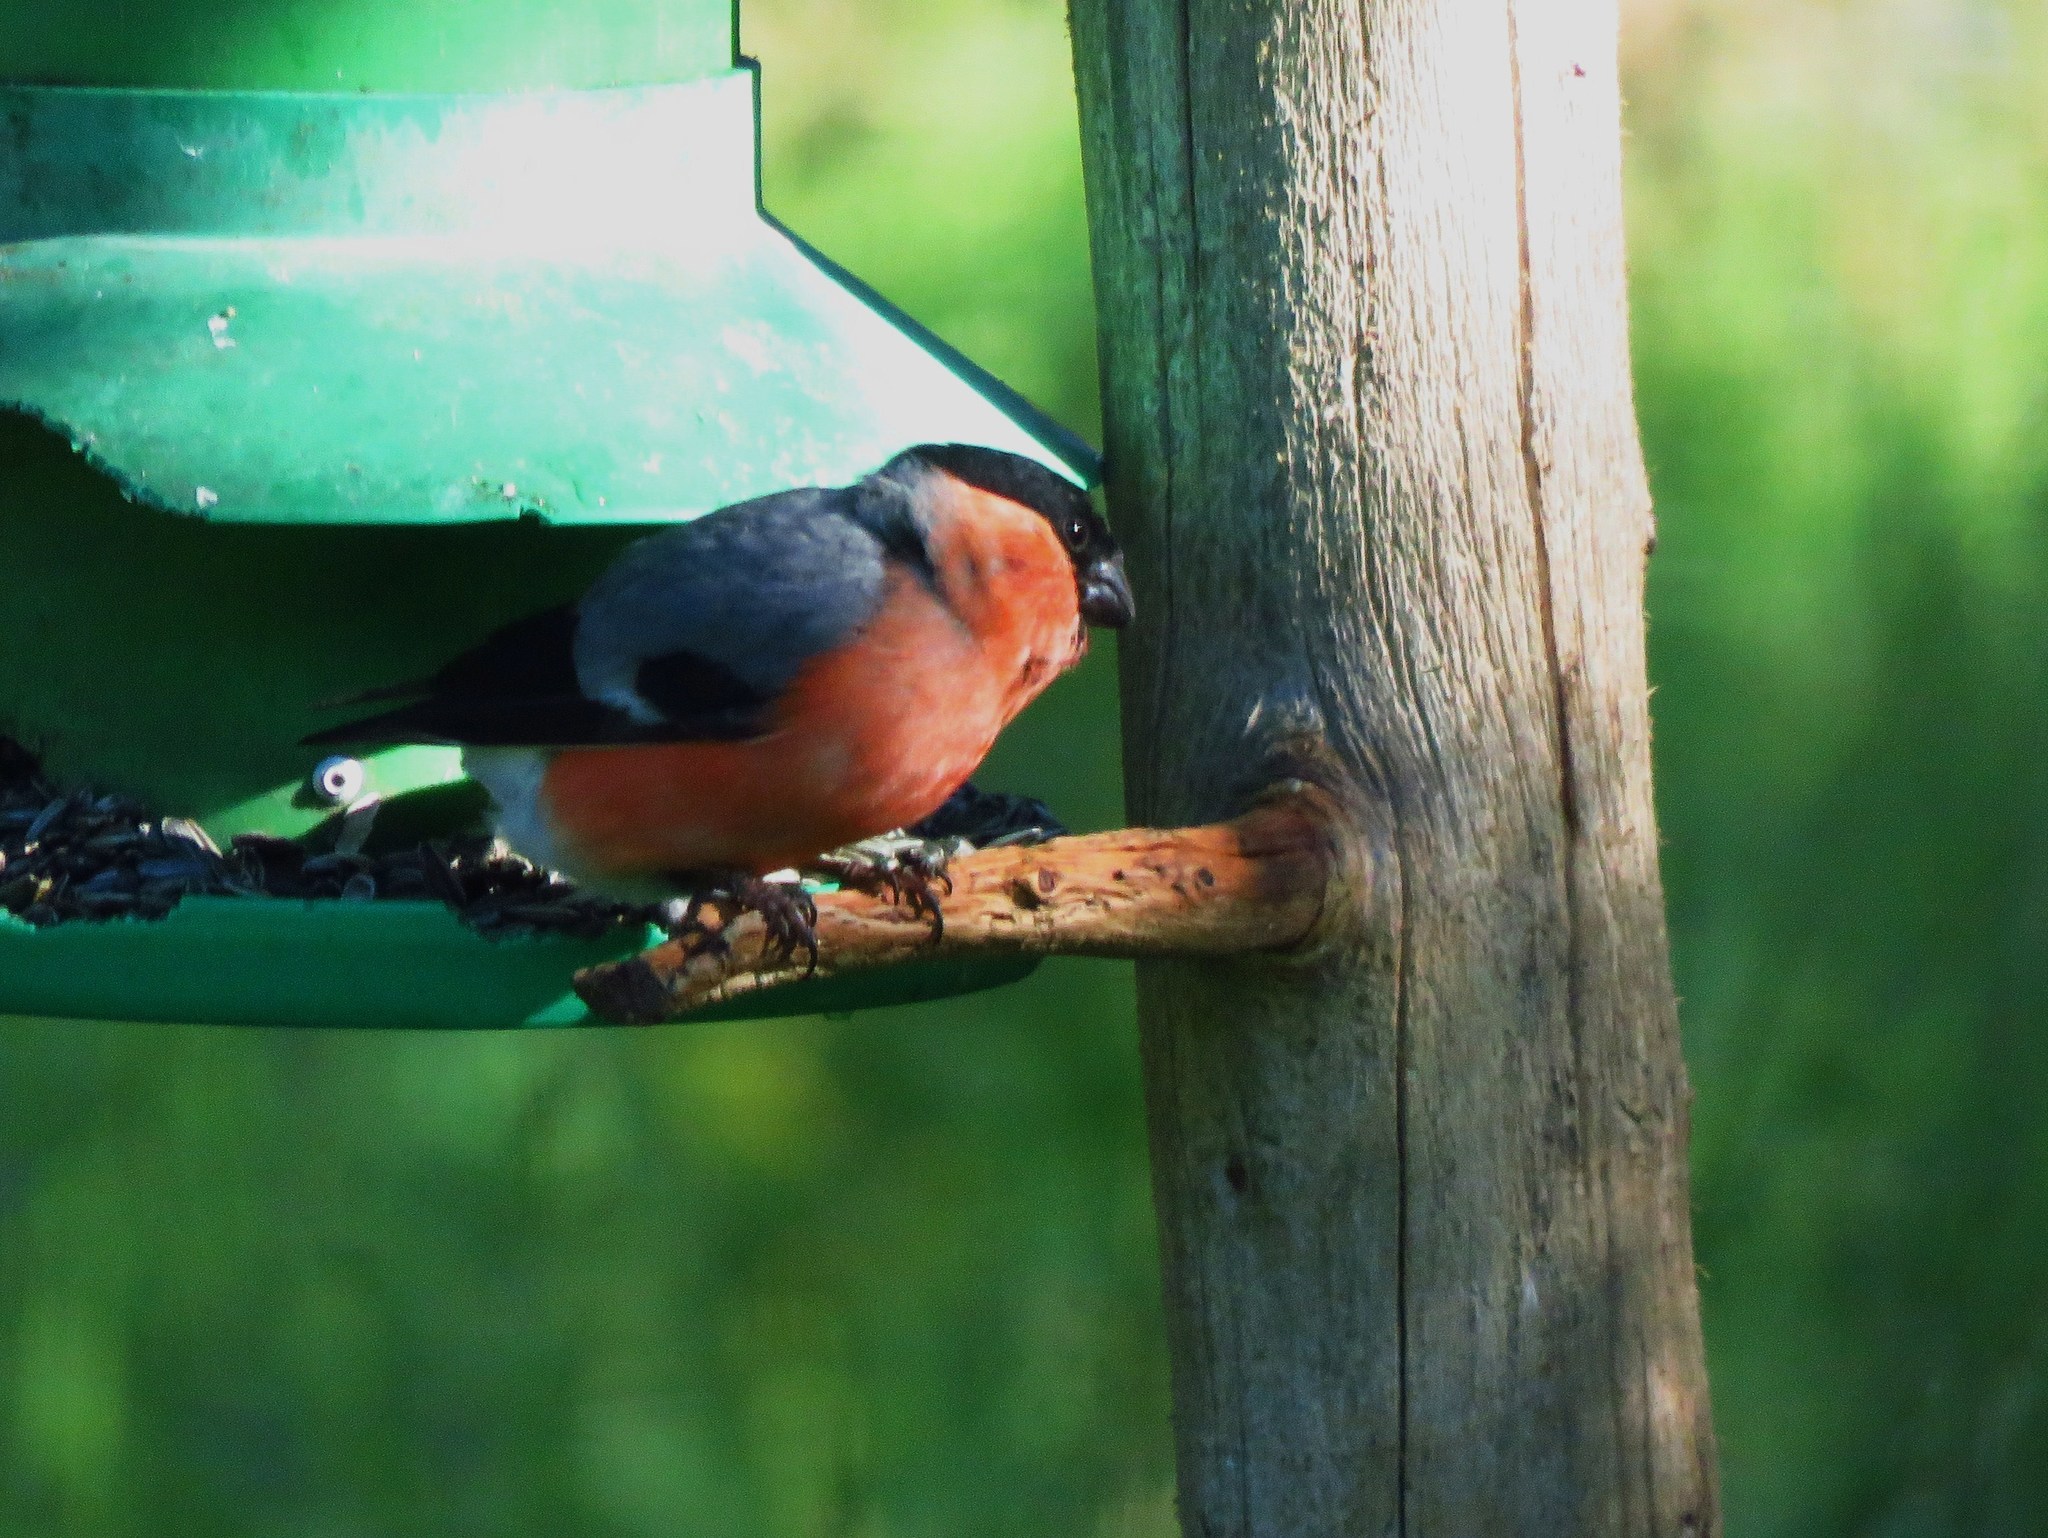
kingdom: Animalia
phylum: Chordata
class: Aves
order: Passeriformes
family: Fringillidae
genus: Pyrrhula
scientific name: Pyrrhula pyrrhula
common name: Eurasian bullfinch
